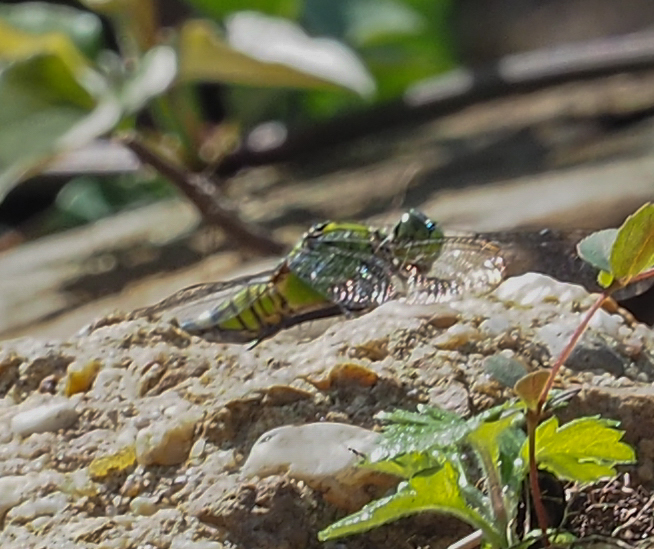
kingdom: Animalia
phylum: Arthropoda
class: Insecta
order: Odonata
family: Libellulidae
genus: Erythemis
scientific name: Erythemis simplicicollis
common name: Eastern pondhawk
